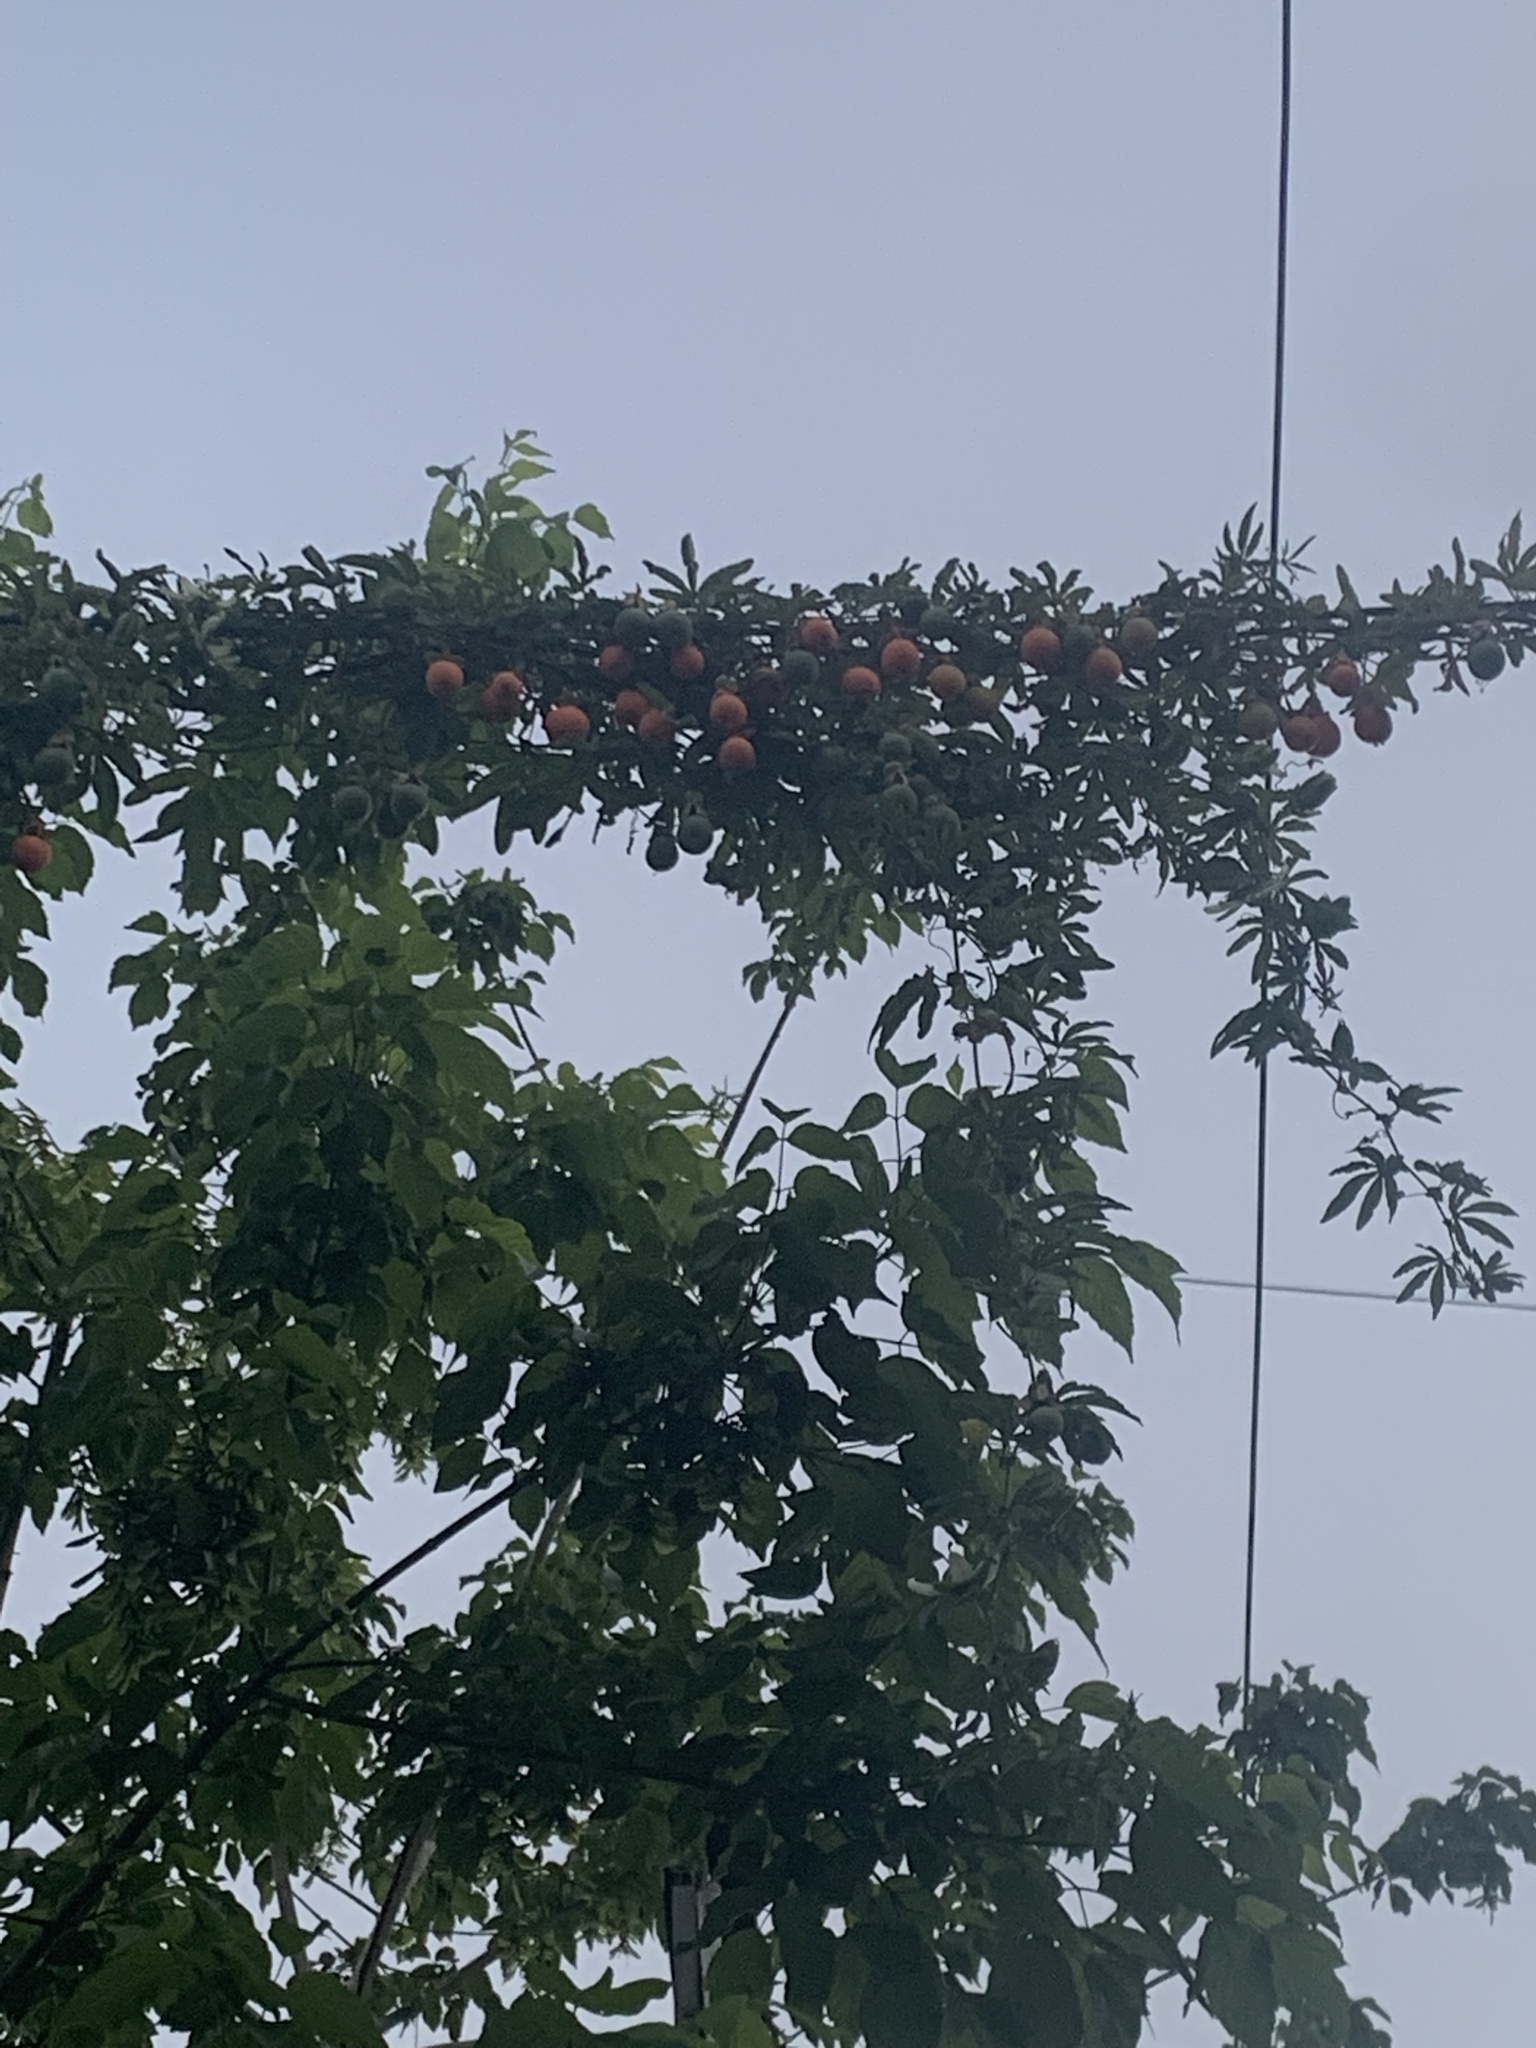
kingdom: Plantae
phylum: Tracheophyta
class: Magnoliopsida
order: Malpighiales
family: Passifloraceae
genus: Passiflora
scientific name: Passiflora caerulea
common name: Blue passionflower
